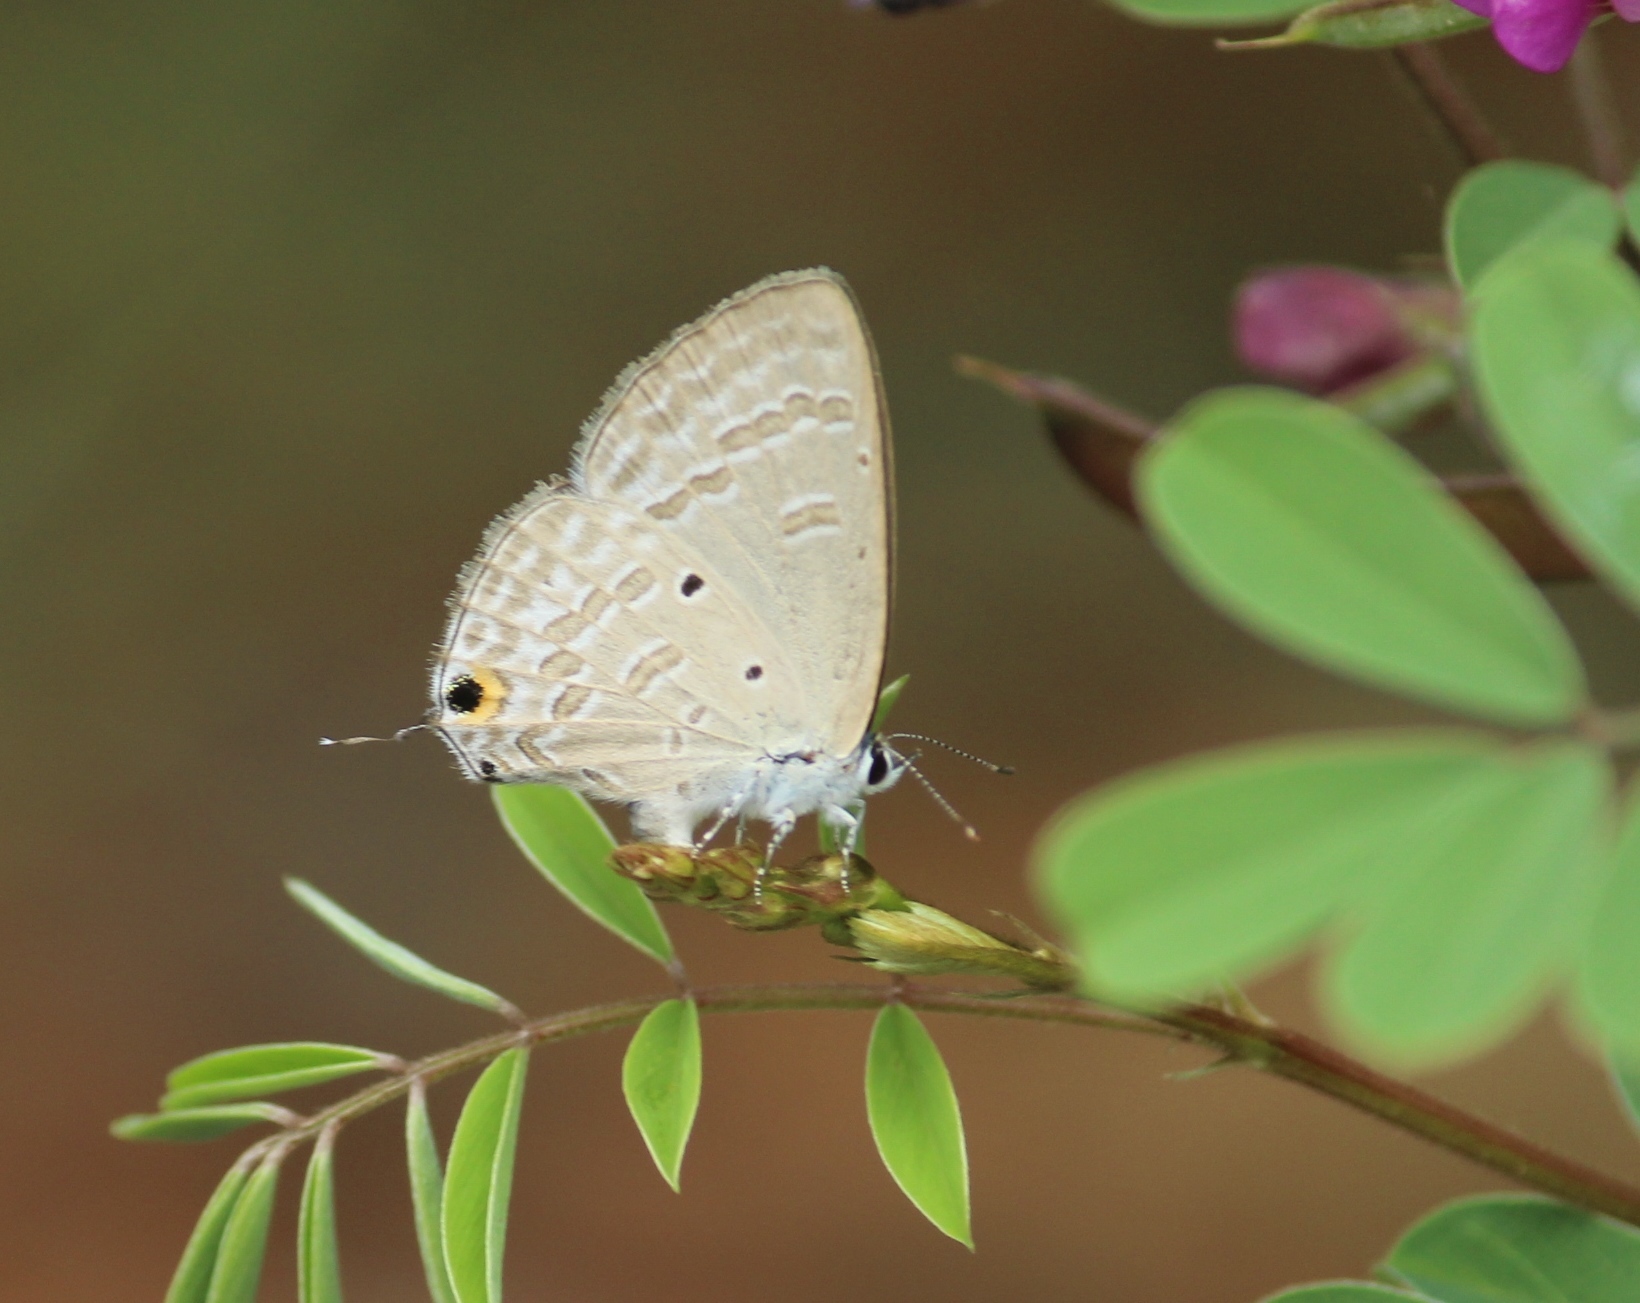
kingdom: Animalia
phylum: Arthropoda
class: Insecta
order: Lepidoptera
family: Lycaenidae
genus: Catochrysops
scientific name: Catochrysops strabo
